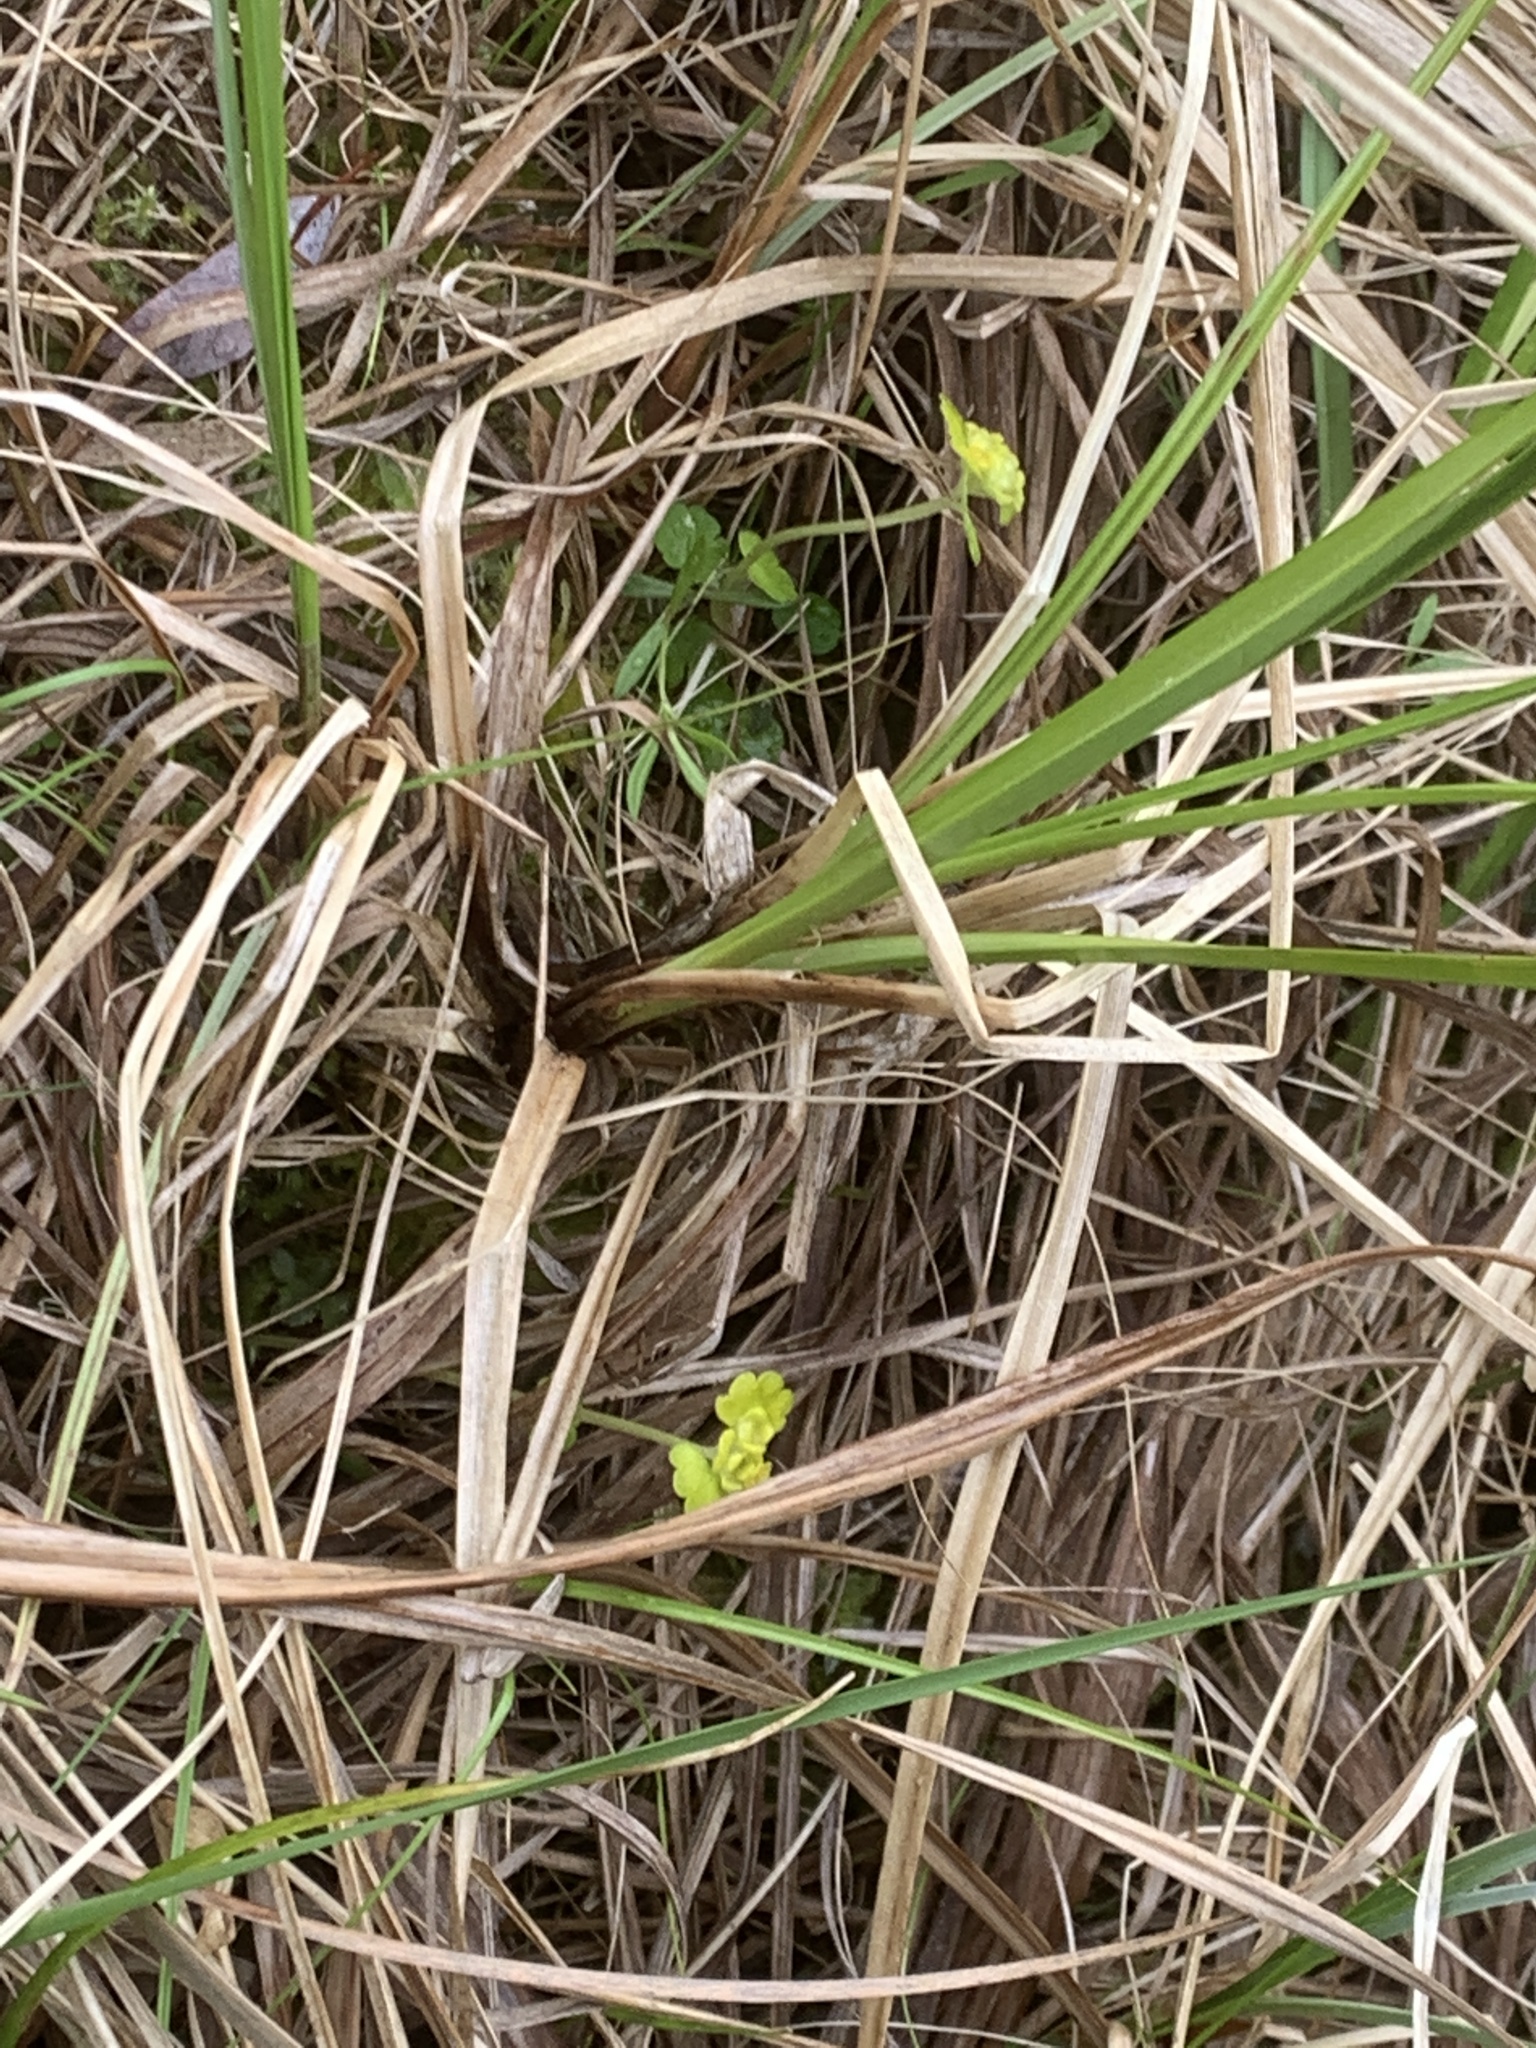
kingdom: Plantae
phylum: Tracheophyta
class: Magnoliopsida
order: Saxifragales
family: Saxifragaceae
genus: Chrysosplenium
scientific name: Chrysosplenium iowense
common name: Iowa golden carpet
